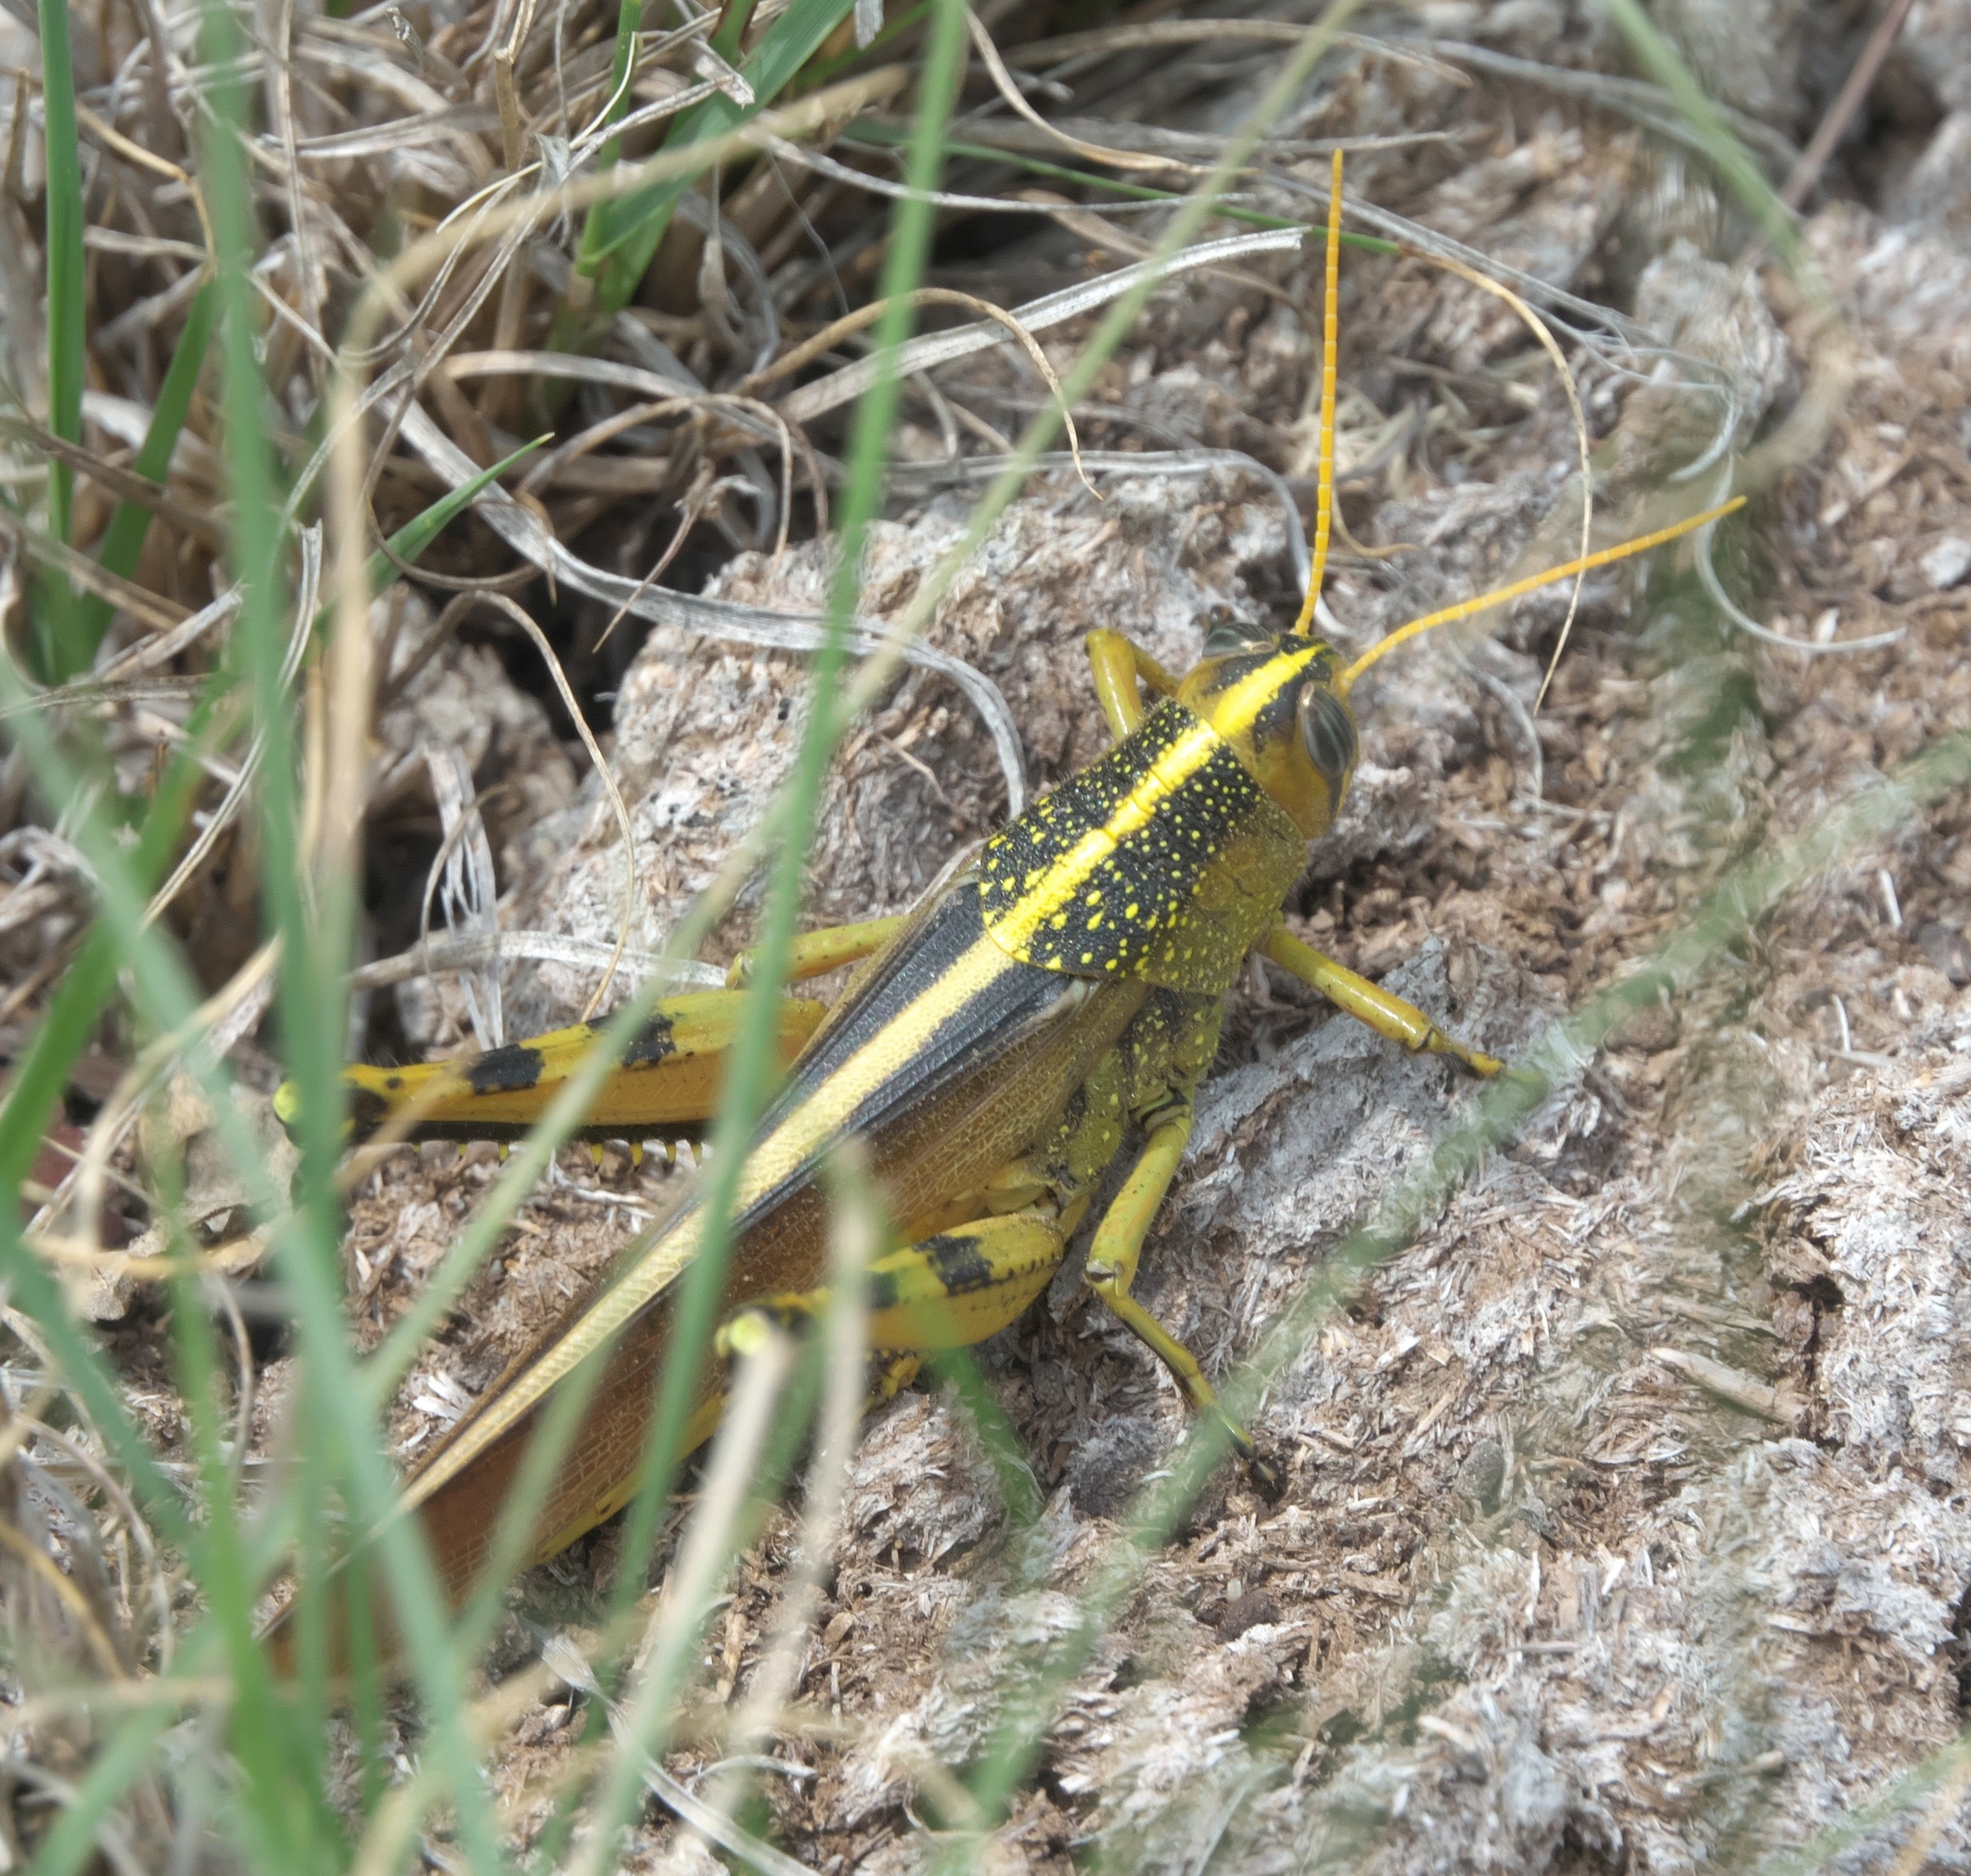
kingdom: Animalia
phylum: Arthropoda
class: Insecta
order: Orthoptera
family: Acrididae
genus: Schistocerca
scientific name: Schistocerca lineata
